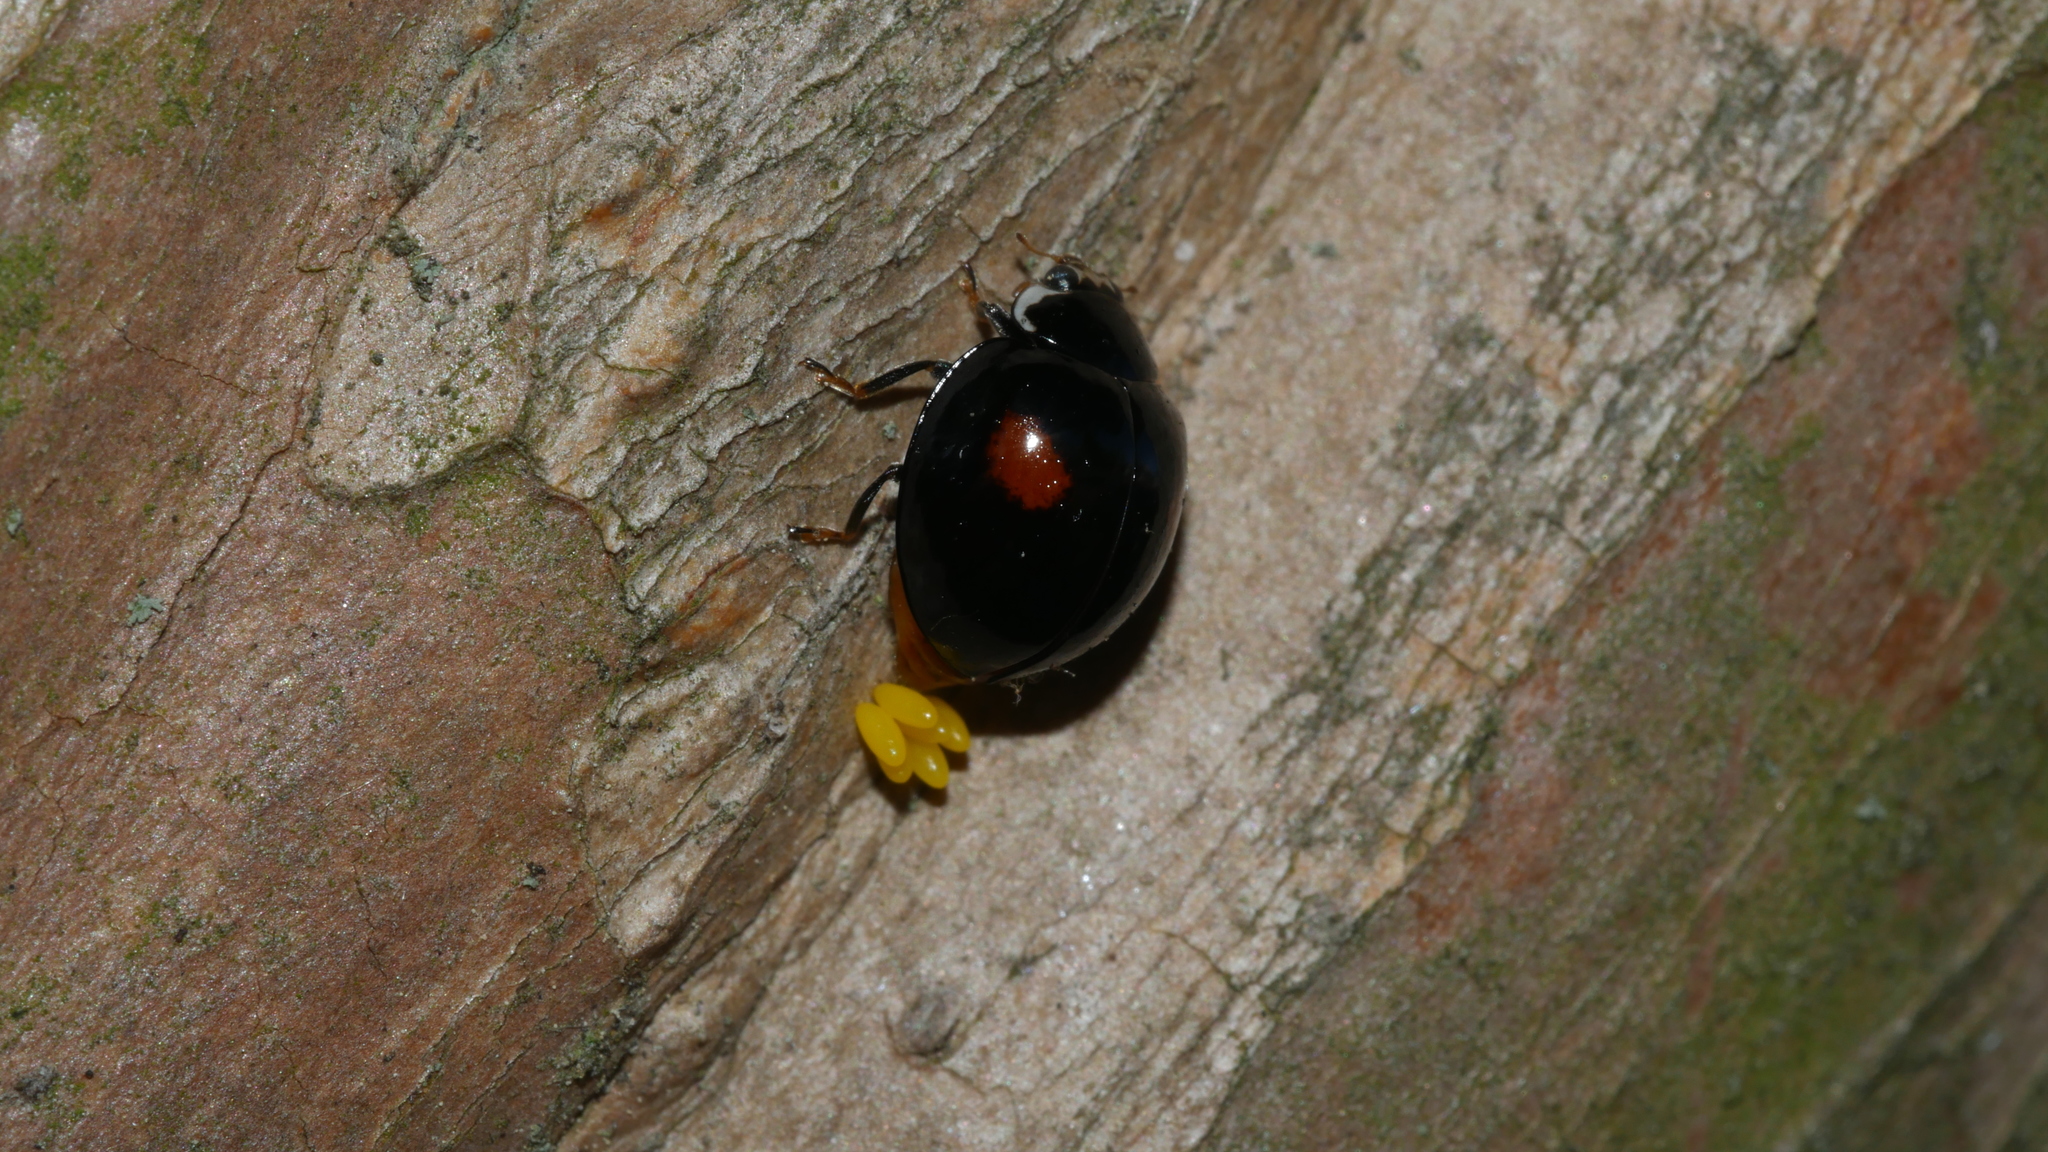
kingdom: Animalia
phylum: Arthropoda
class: Insecta
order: Coleoptera
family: Coccinellidae
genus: Olla
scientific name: Olla v-nigrum
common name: Ashy gray lady beetle
